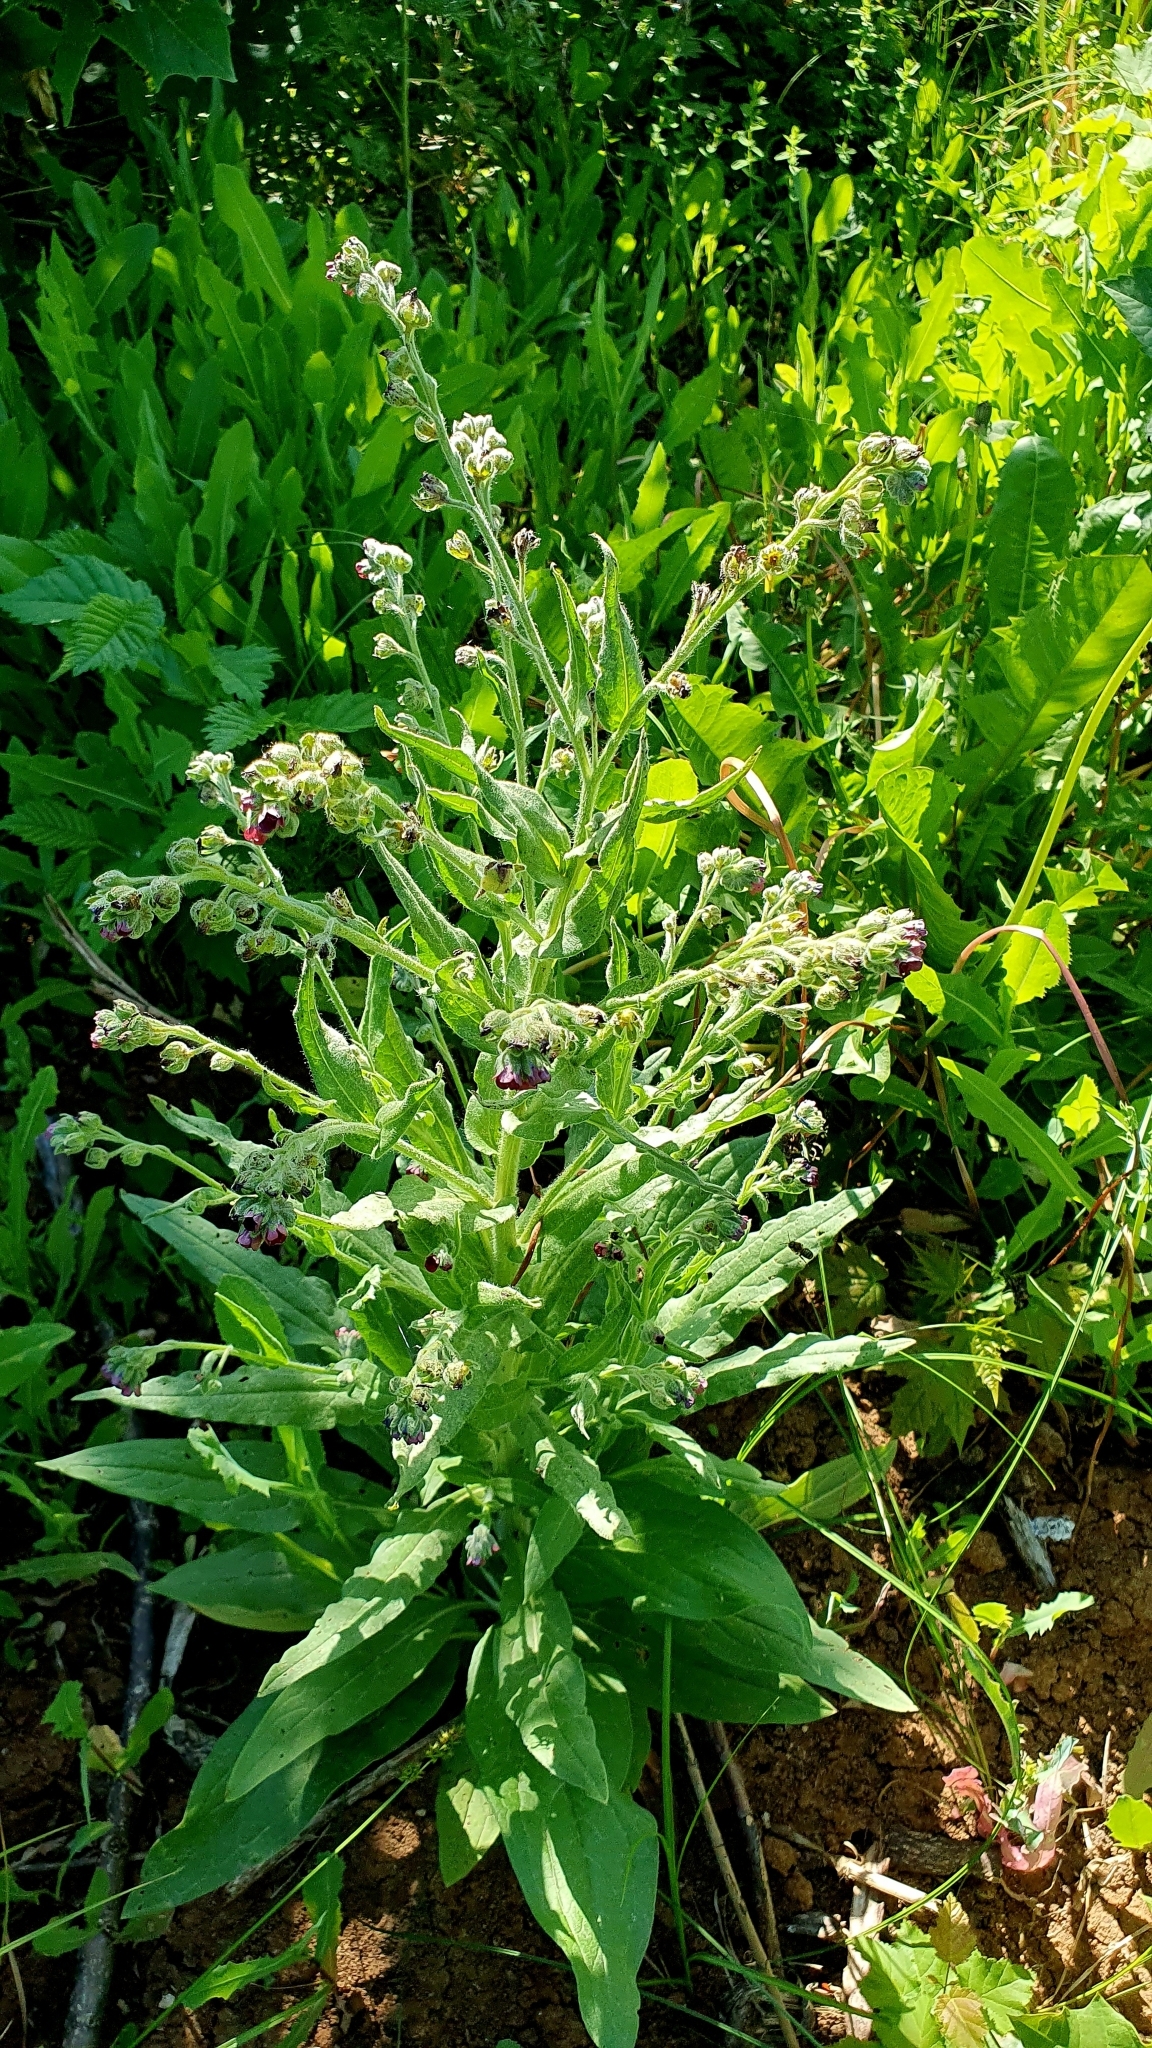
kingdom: Plantae
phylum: Tracheophyta
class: Magnoliopsida
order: Boraginales
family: Boraginaceae
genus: Cynoglossum
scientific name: Cynoglossum officinale
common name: Hound's-tongue
